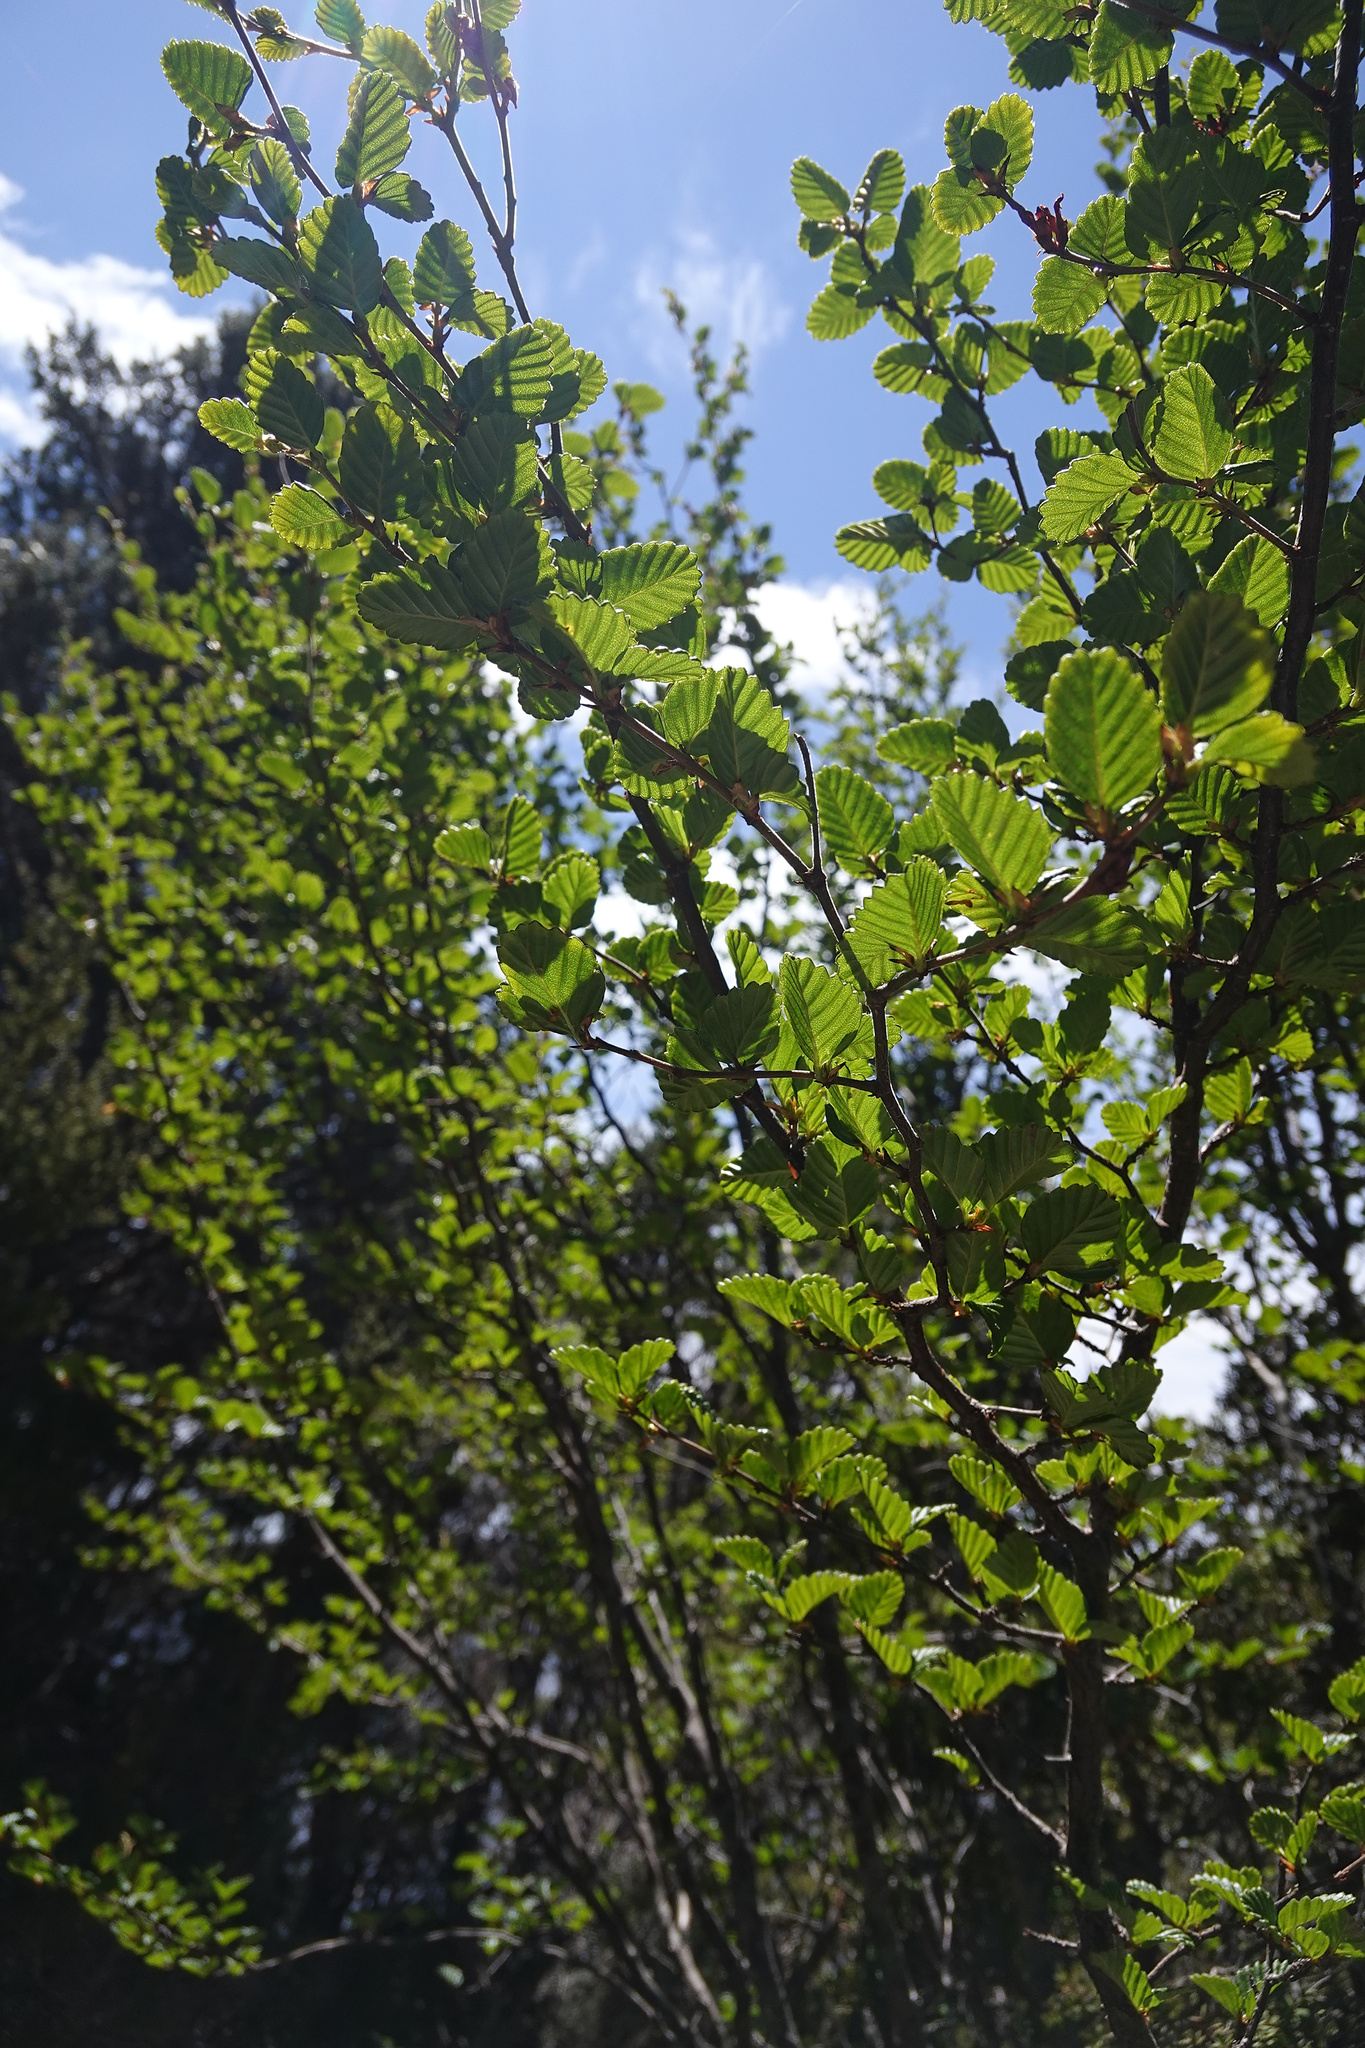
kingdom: Plantae
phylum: Tracheophyta
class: Magnoliopsida
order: Fagales
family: Nothofagaceae
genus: Nothofagus
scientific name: Nothofagus gunnii
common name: Tanglefoot
